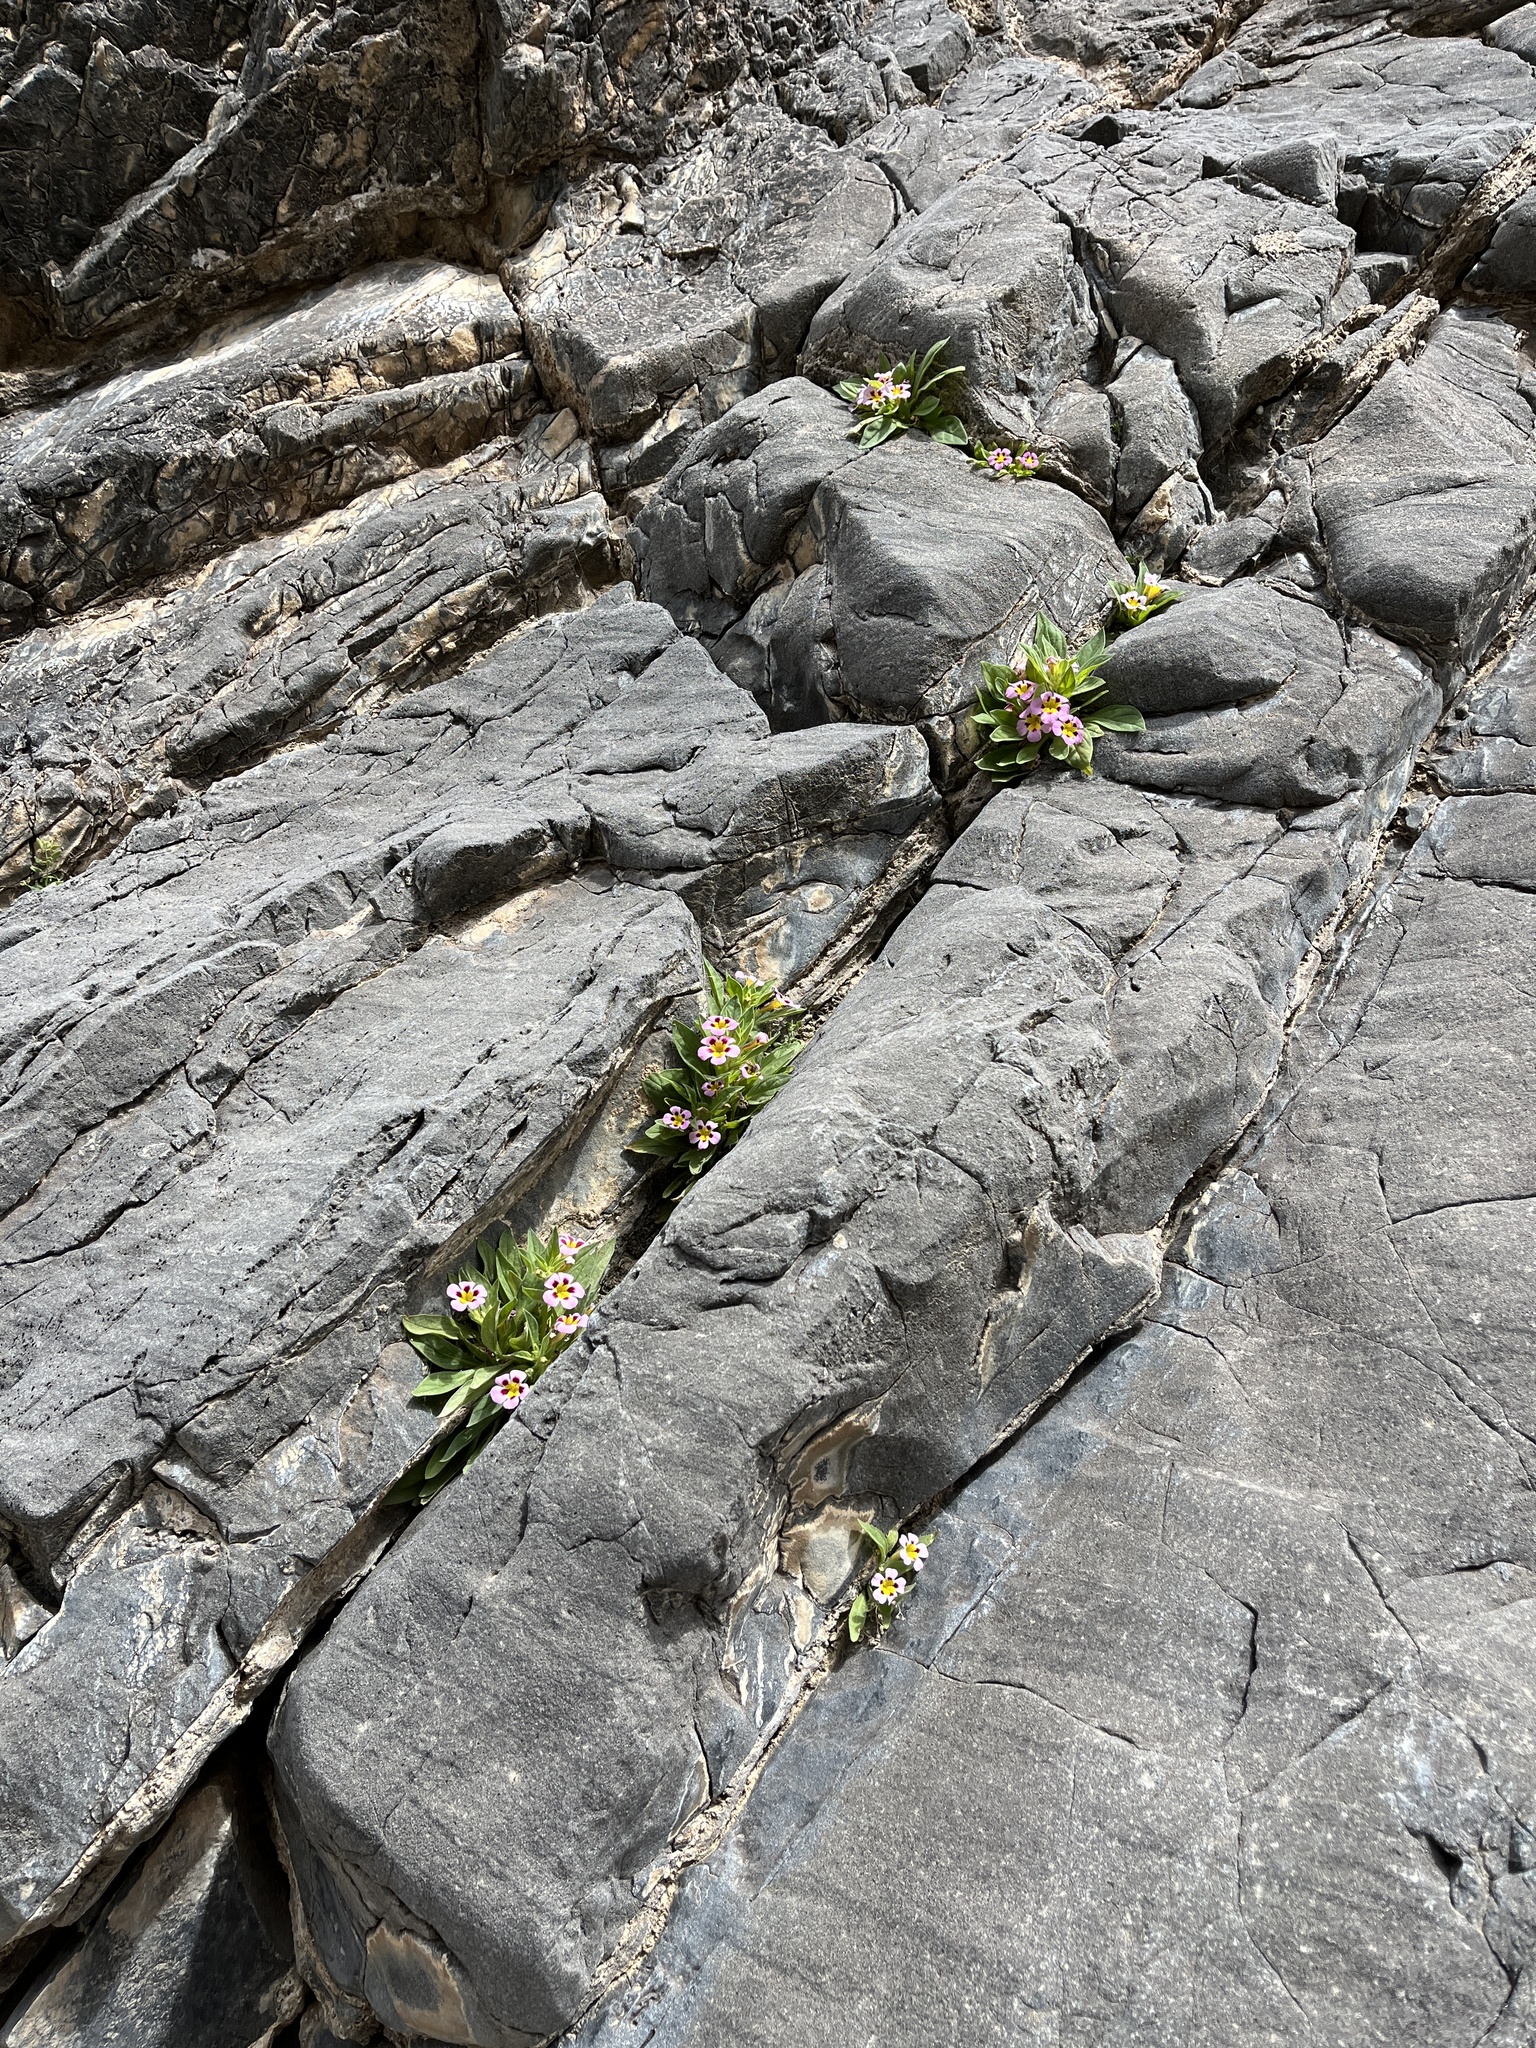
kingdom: Plantae
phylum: Tracheophyta
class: Magnoliopsida
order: Lamiales
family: Phrymaceae
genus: Diplacus
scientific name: Diplacus rupicola
